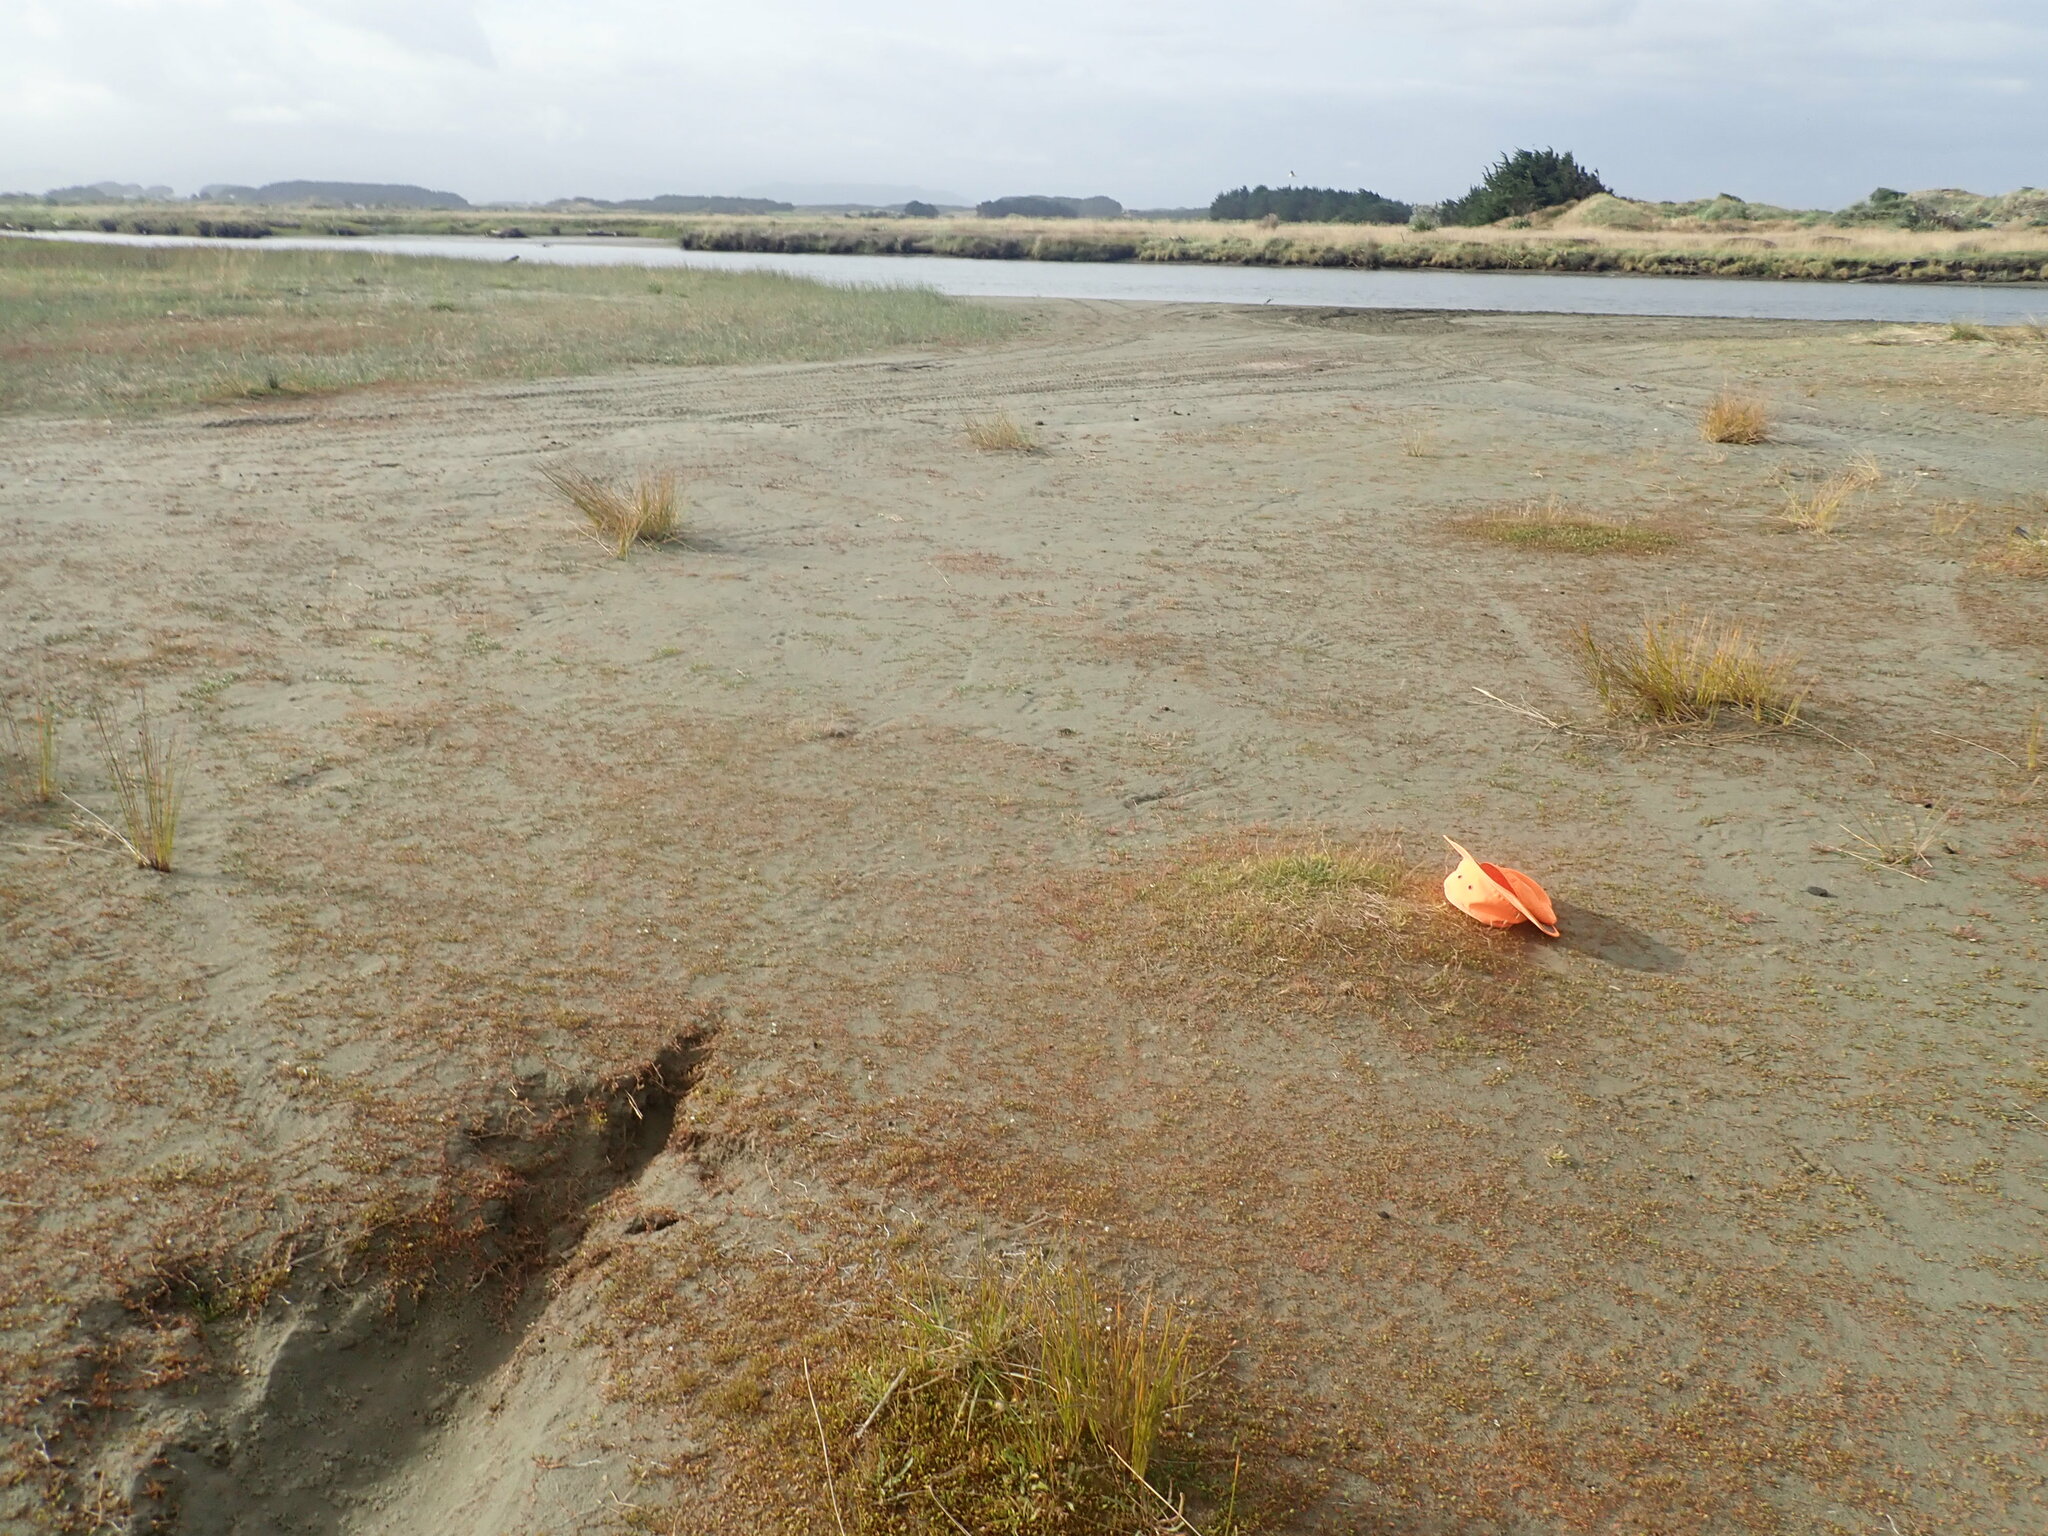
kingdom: Plantae
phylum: Tracheophyta
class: Magnoliopsida
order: Lamiales
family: Plantaginaceae
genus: Plantago
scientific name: Plantago coronopus
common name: Buck's-horn plantain
